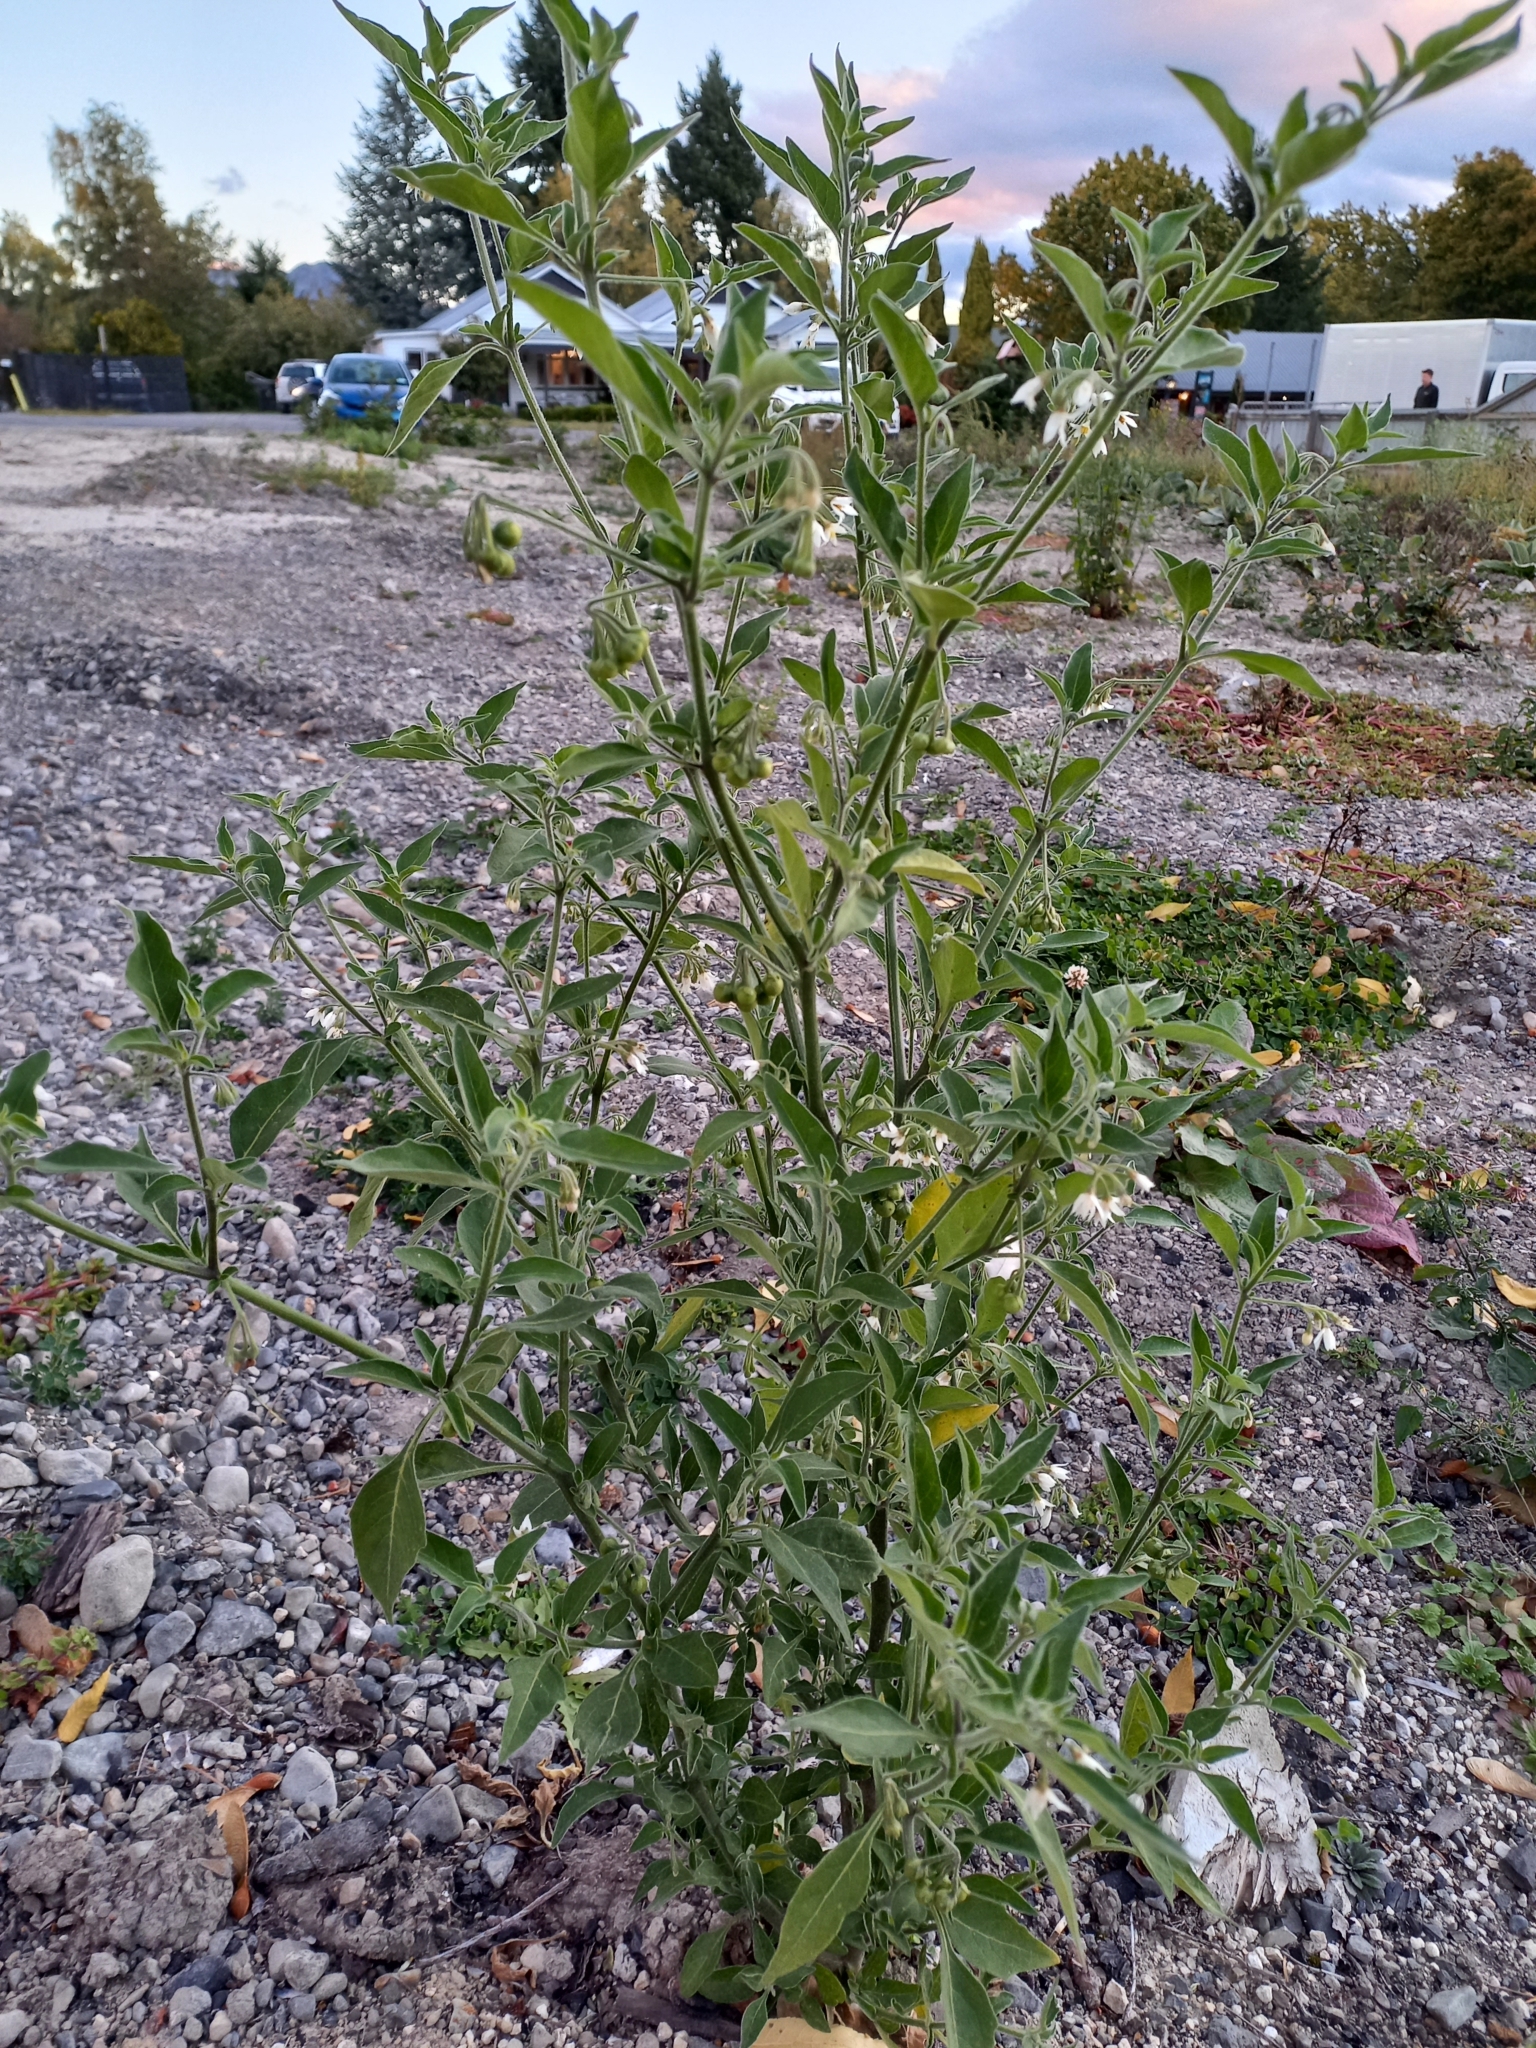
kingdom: Plantae
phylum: Tracheophyta
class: Magnoliopsida
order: Solanales
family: Solanaceae
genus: Solanum
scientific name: Solanum chenopodioides
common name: Tall nightshade
